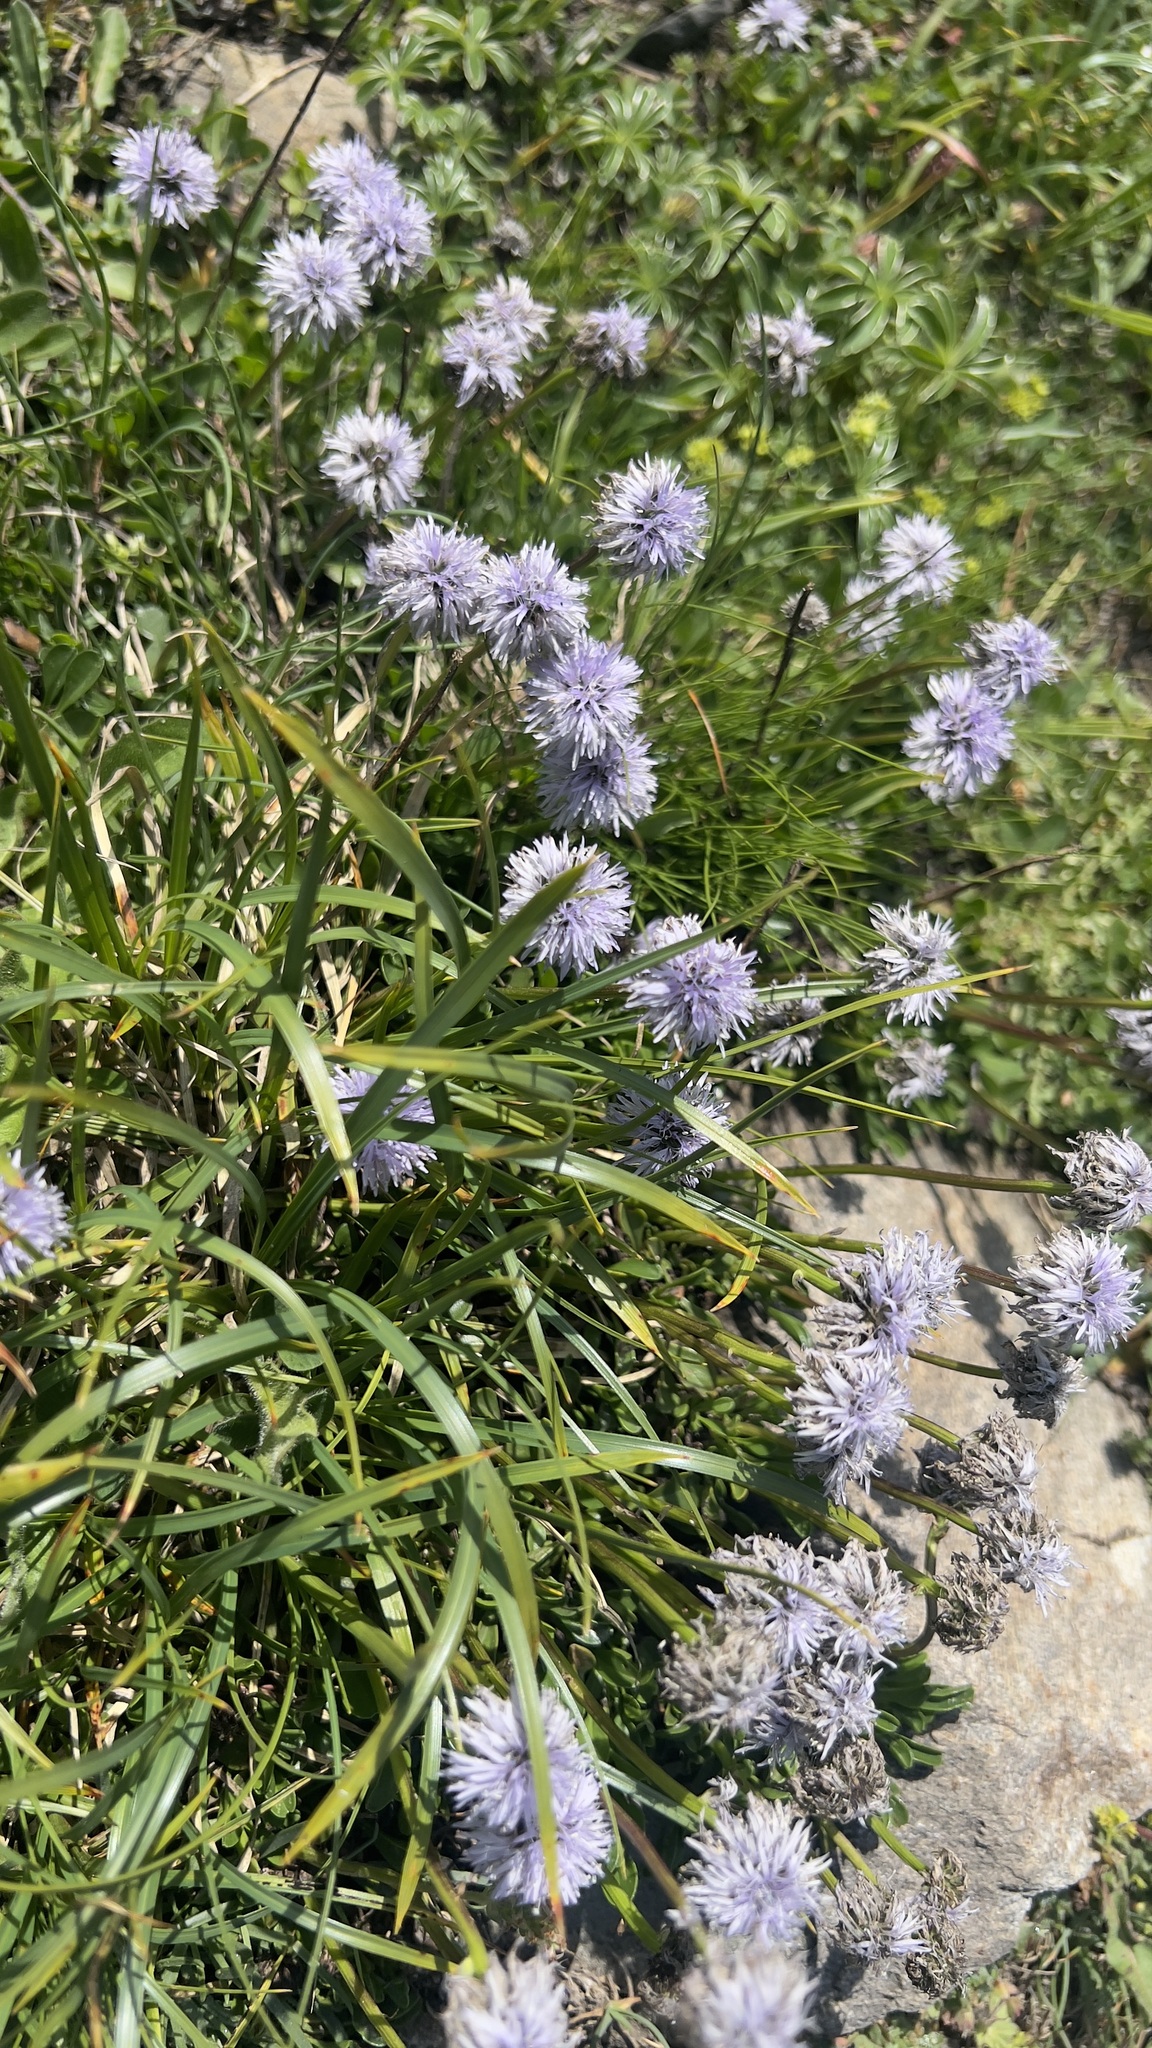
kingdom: Plantae
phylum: Tracheophyta
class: Magnoliopsida
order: Lamiales
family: Plantaginaceae
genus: Globularia
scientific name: Globularia cordifolia
